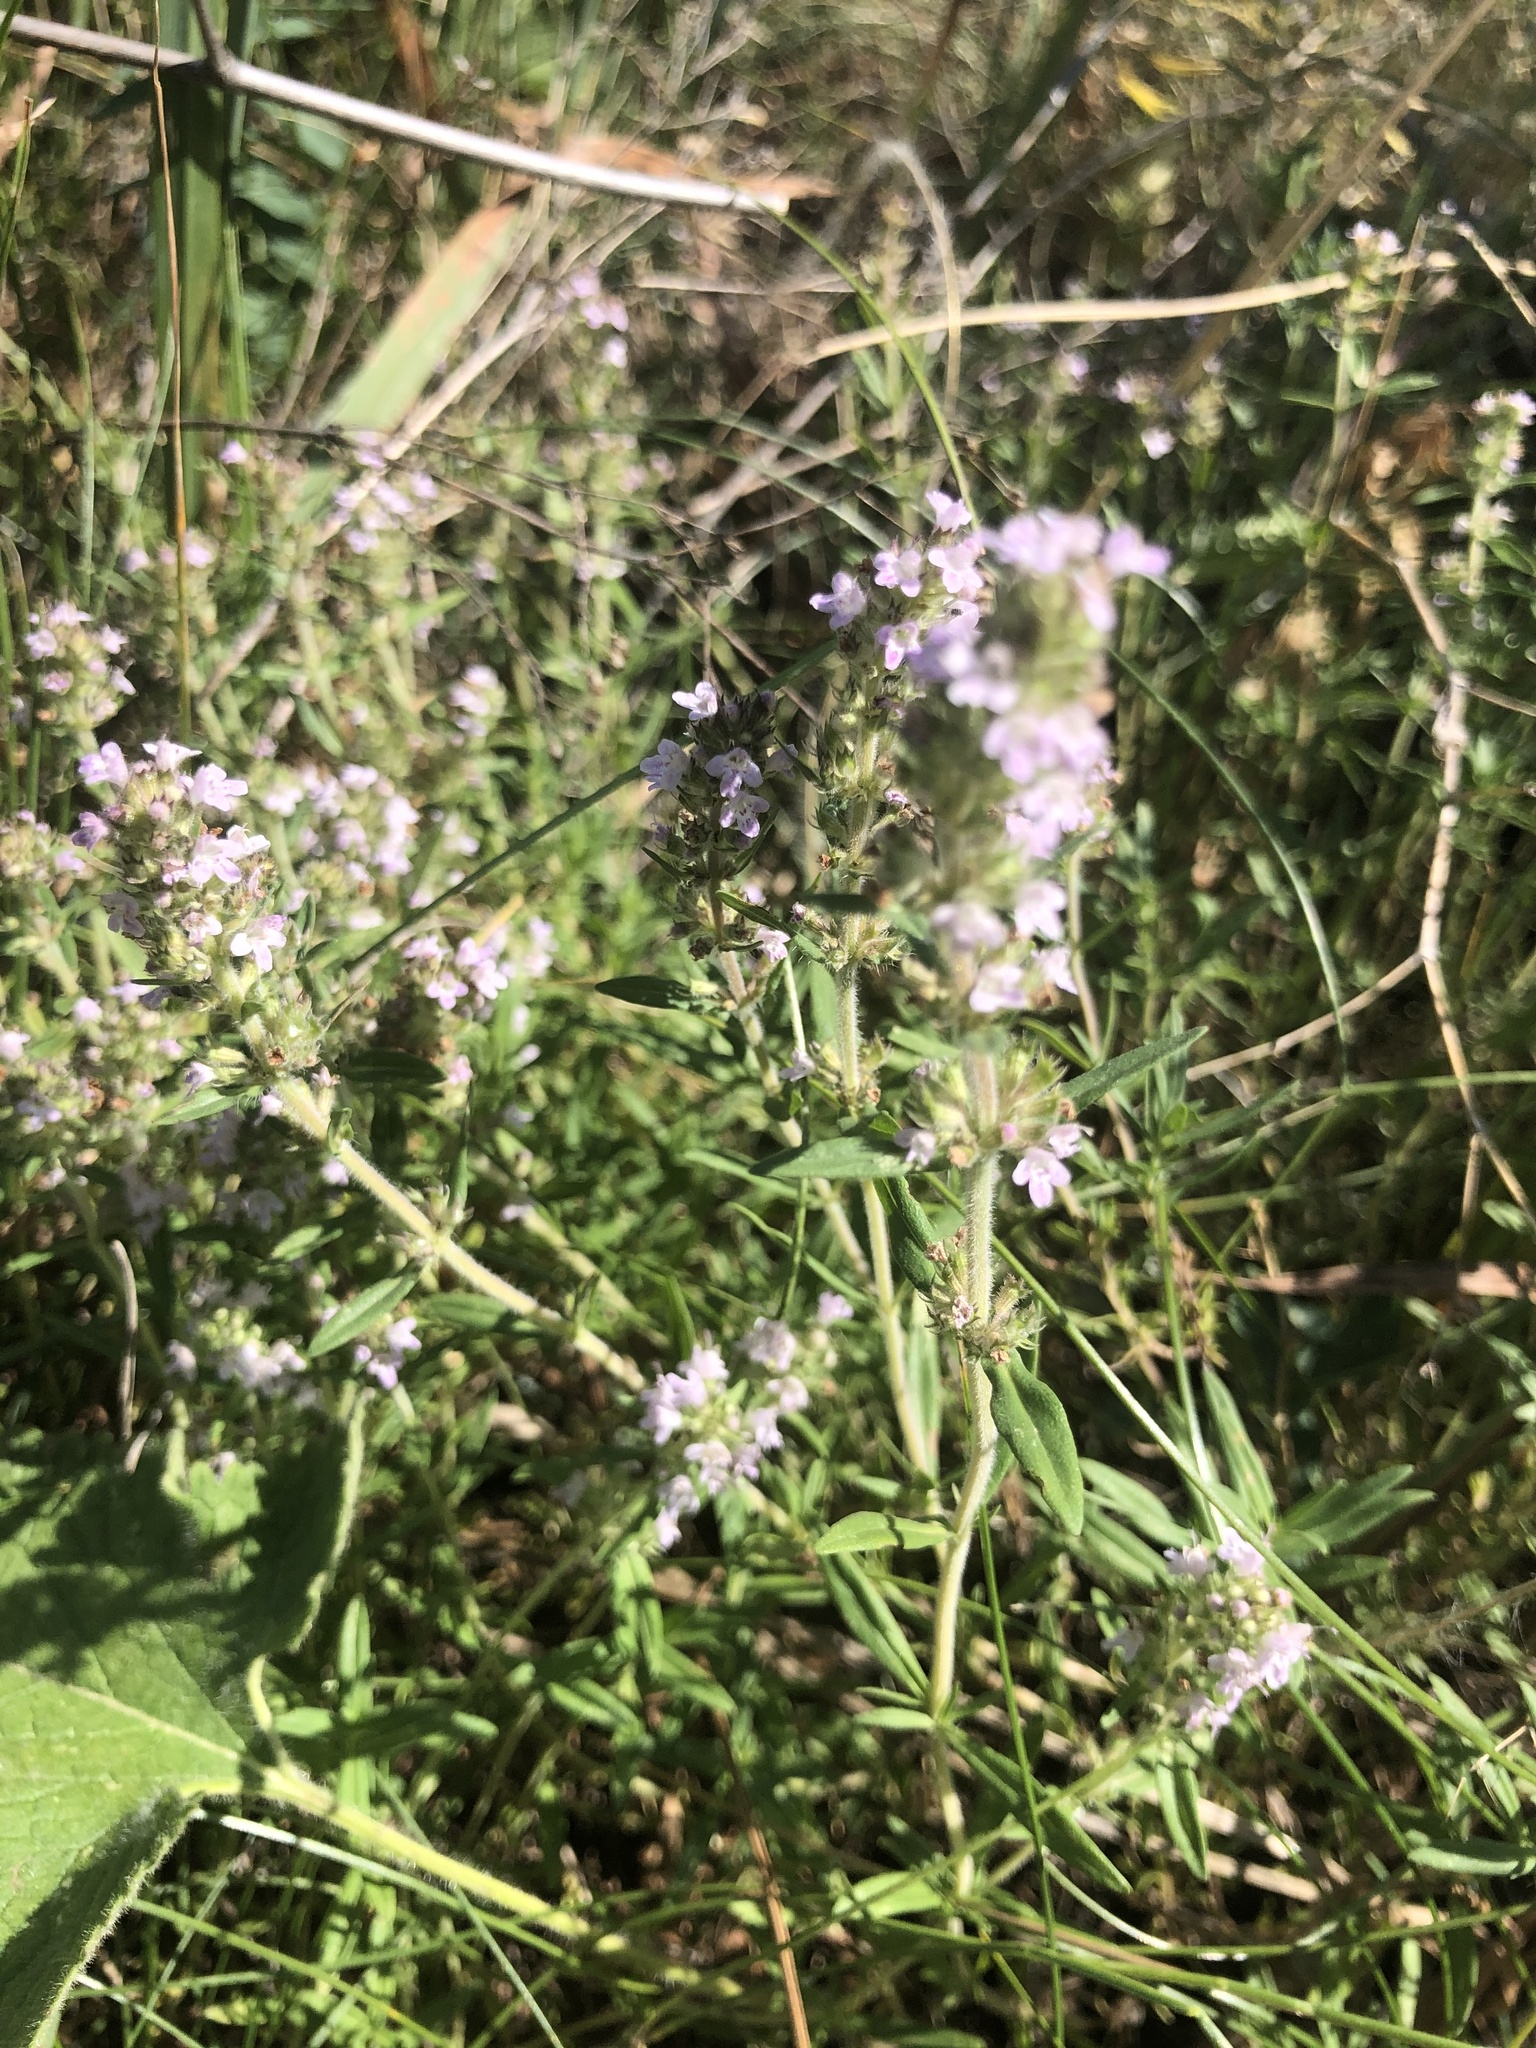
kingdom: Plantae
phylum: Tracheophyta
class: Magnoliopsida
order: Lamiales
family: Lamiaceae
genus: Thymus
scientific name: Thymus pannonicus
